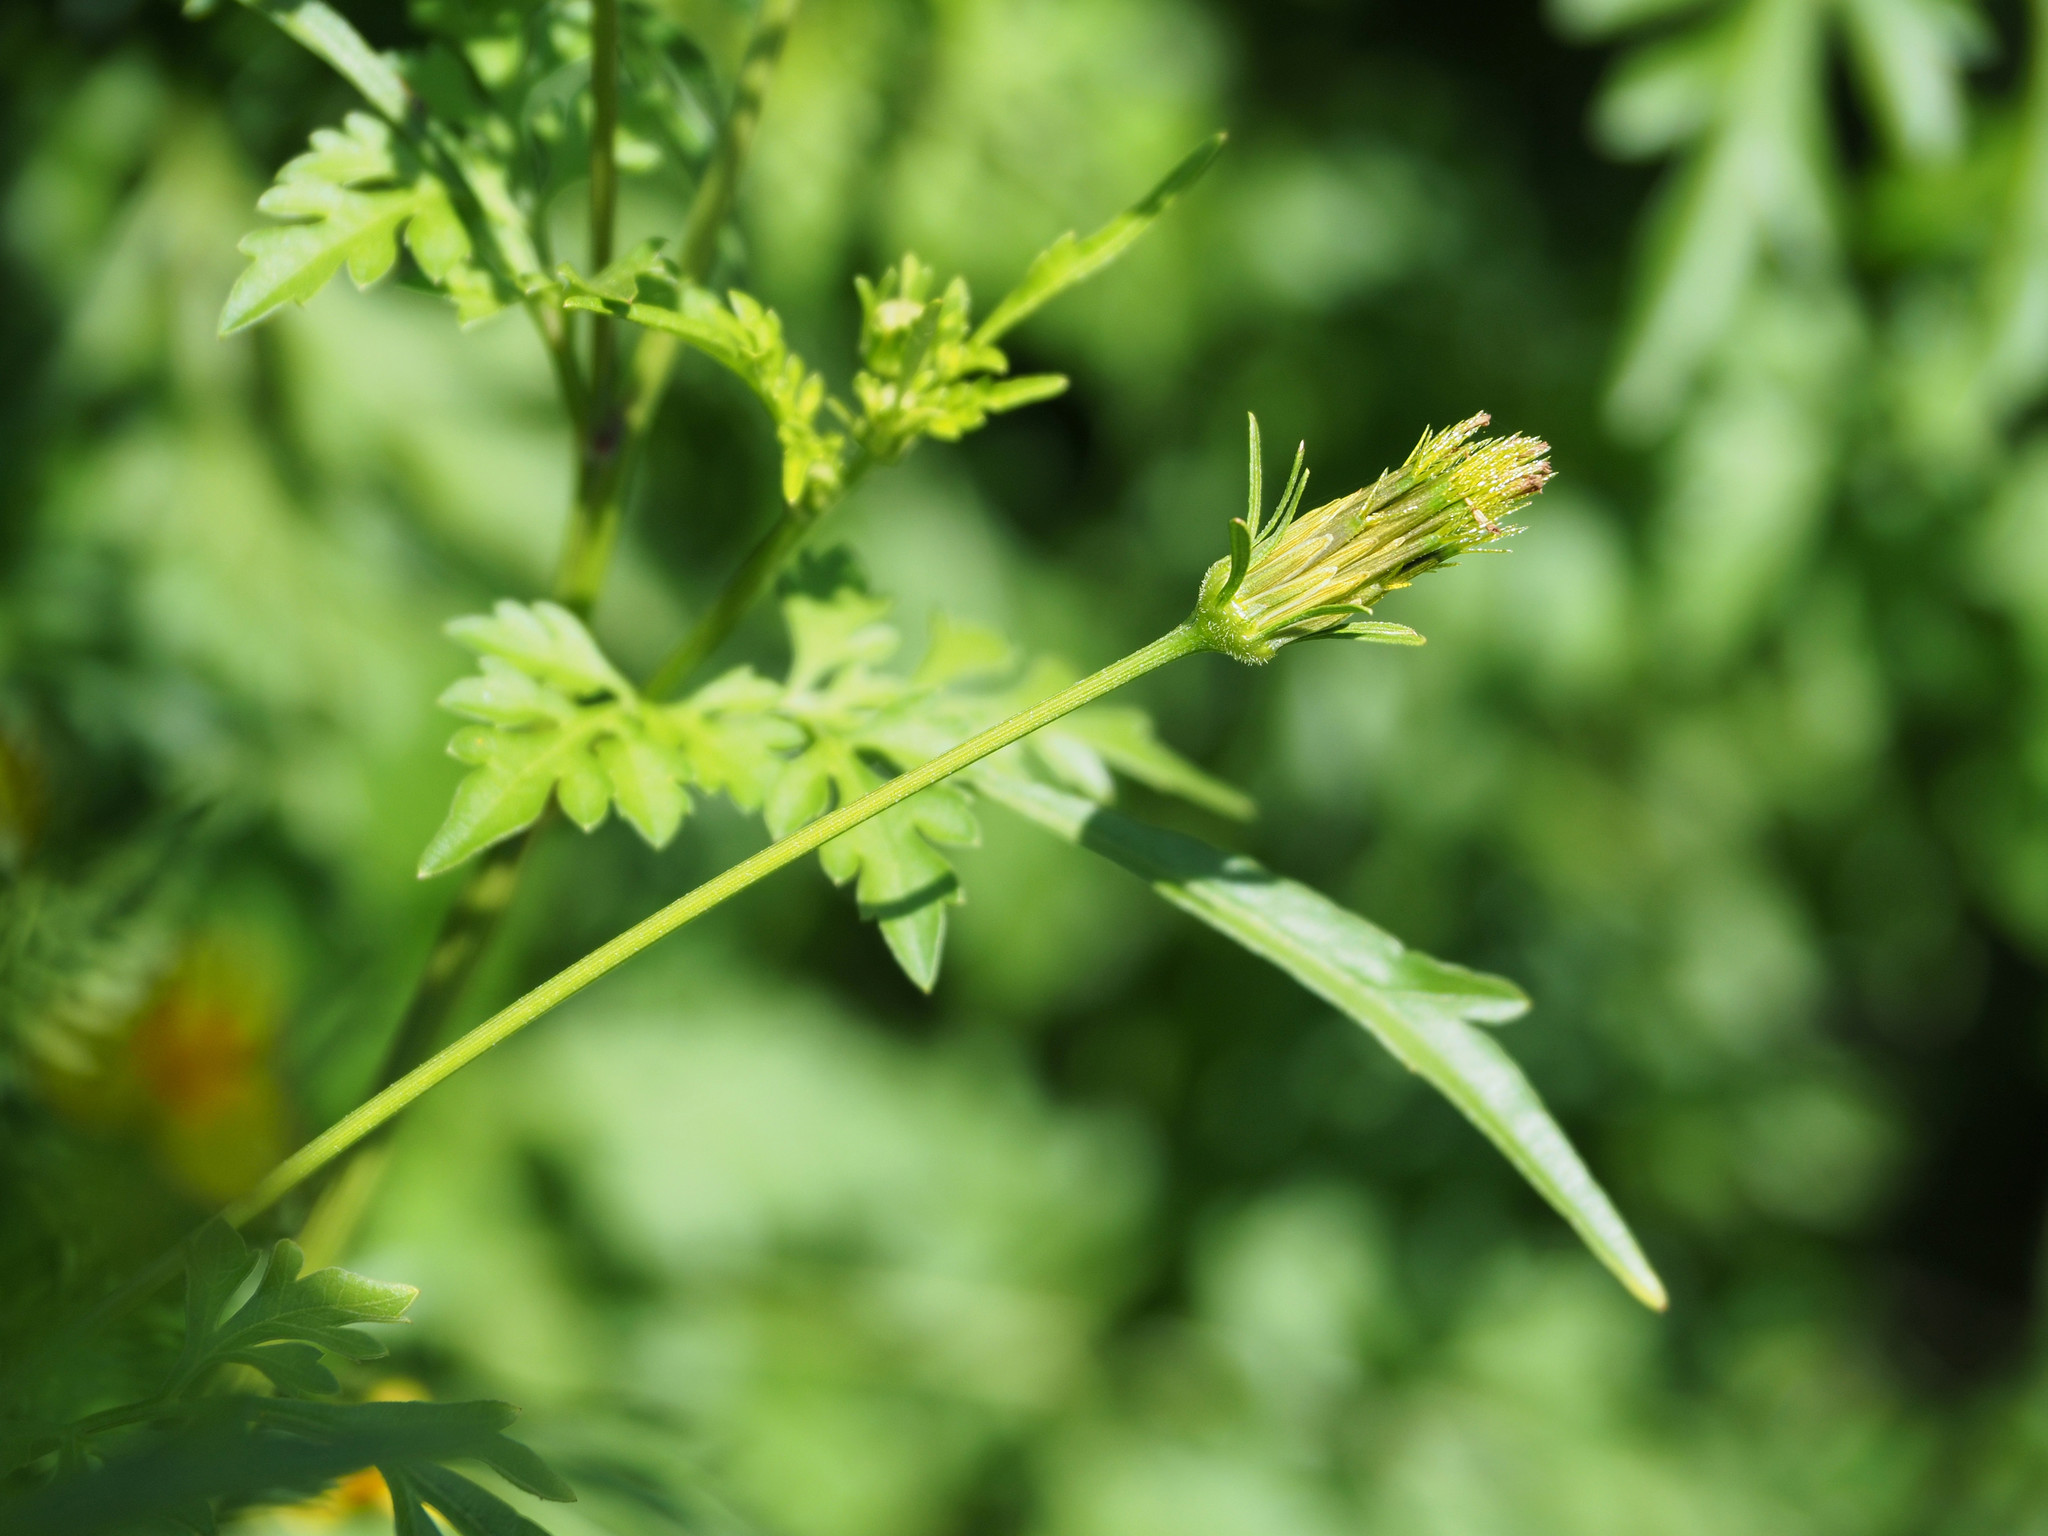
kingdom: Plantae
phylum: Tracheophyta
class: Magnoliopsida
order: Asterales
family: Asteraceae
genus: Bidens
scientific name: Bidens bipinnata
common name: Spanish-needles
